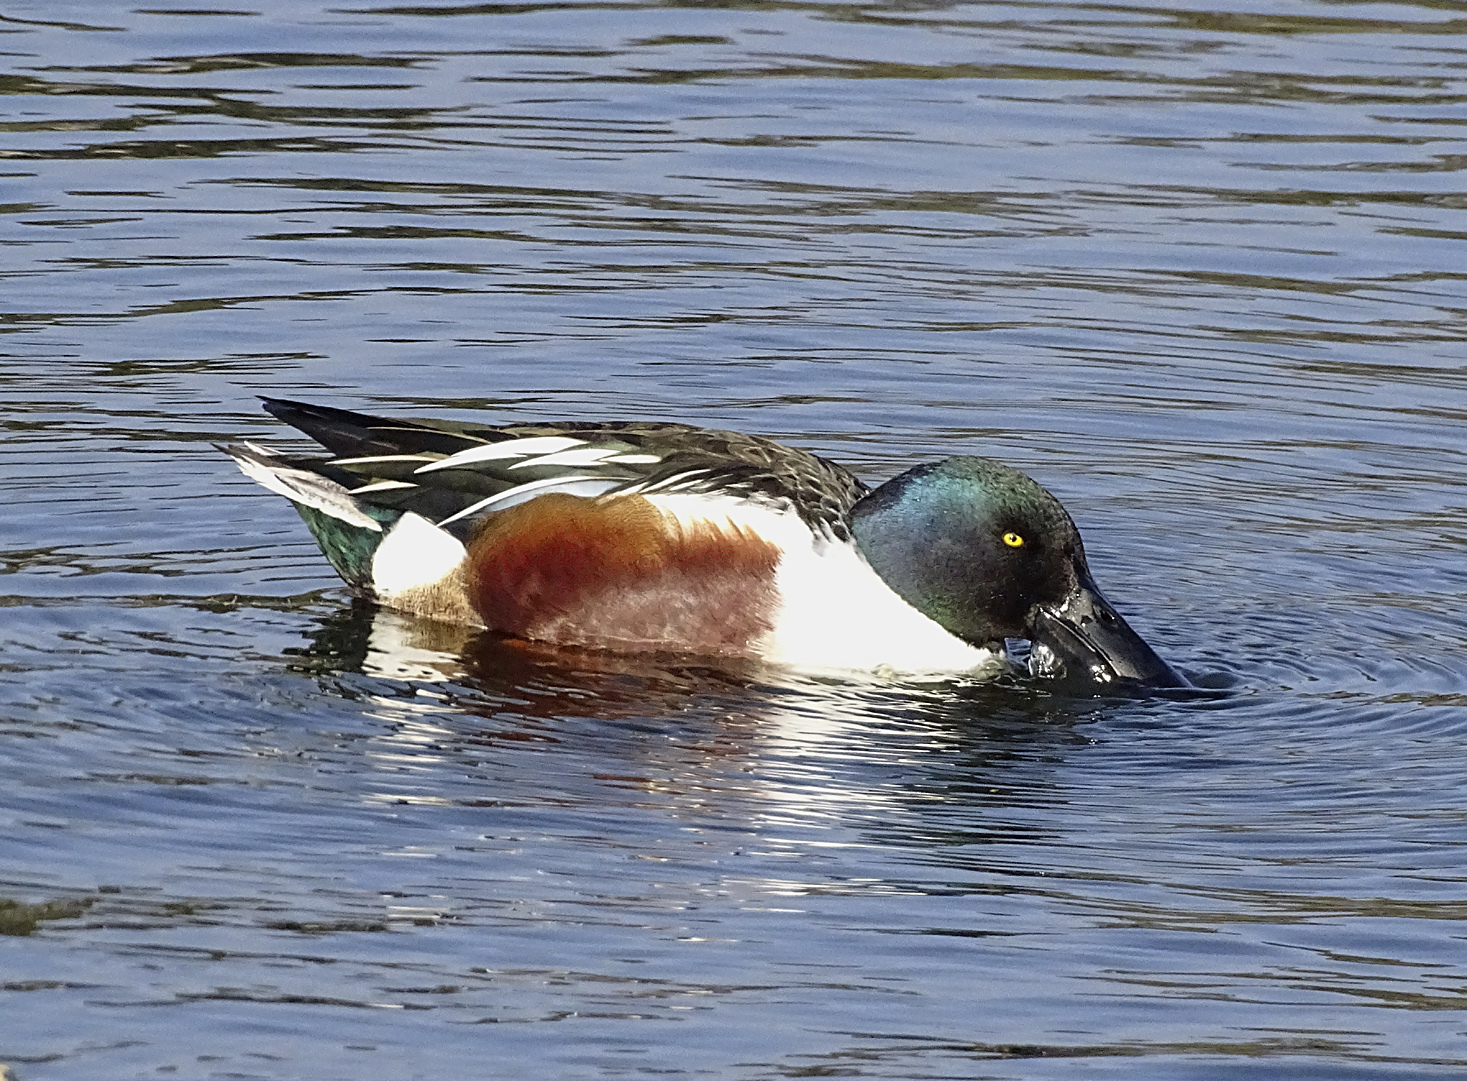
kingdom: Animalia
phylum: Chordata
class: Aves
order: Anseriformes
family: Anatidae
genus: Spatula
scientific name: Spatula clypeata
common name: Northern shoveler
